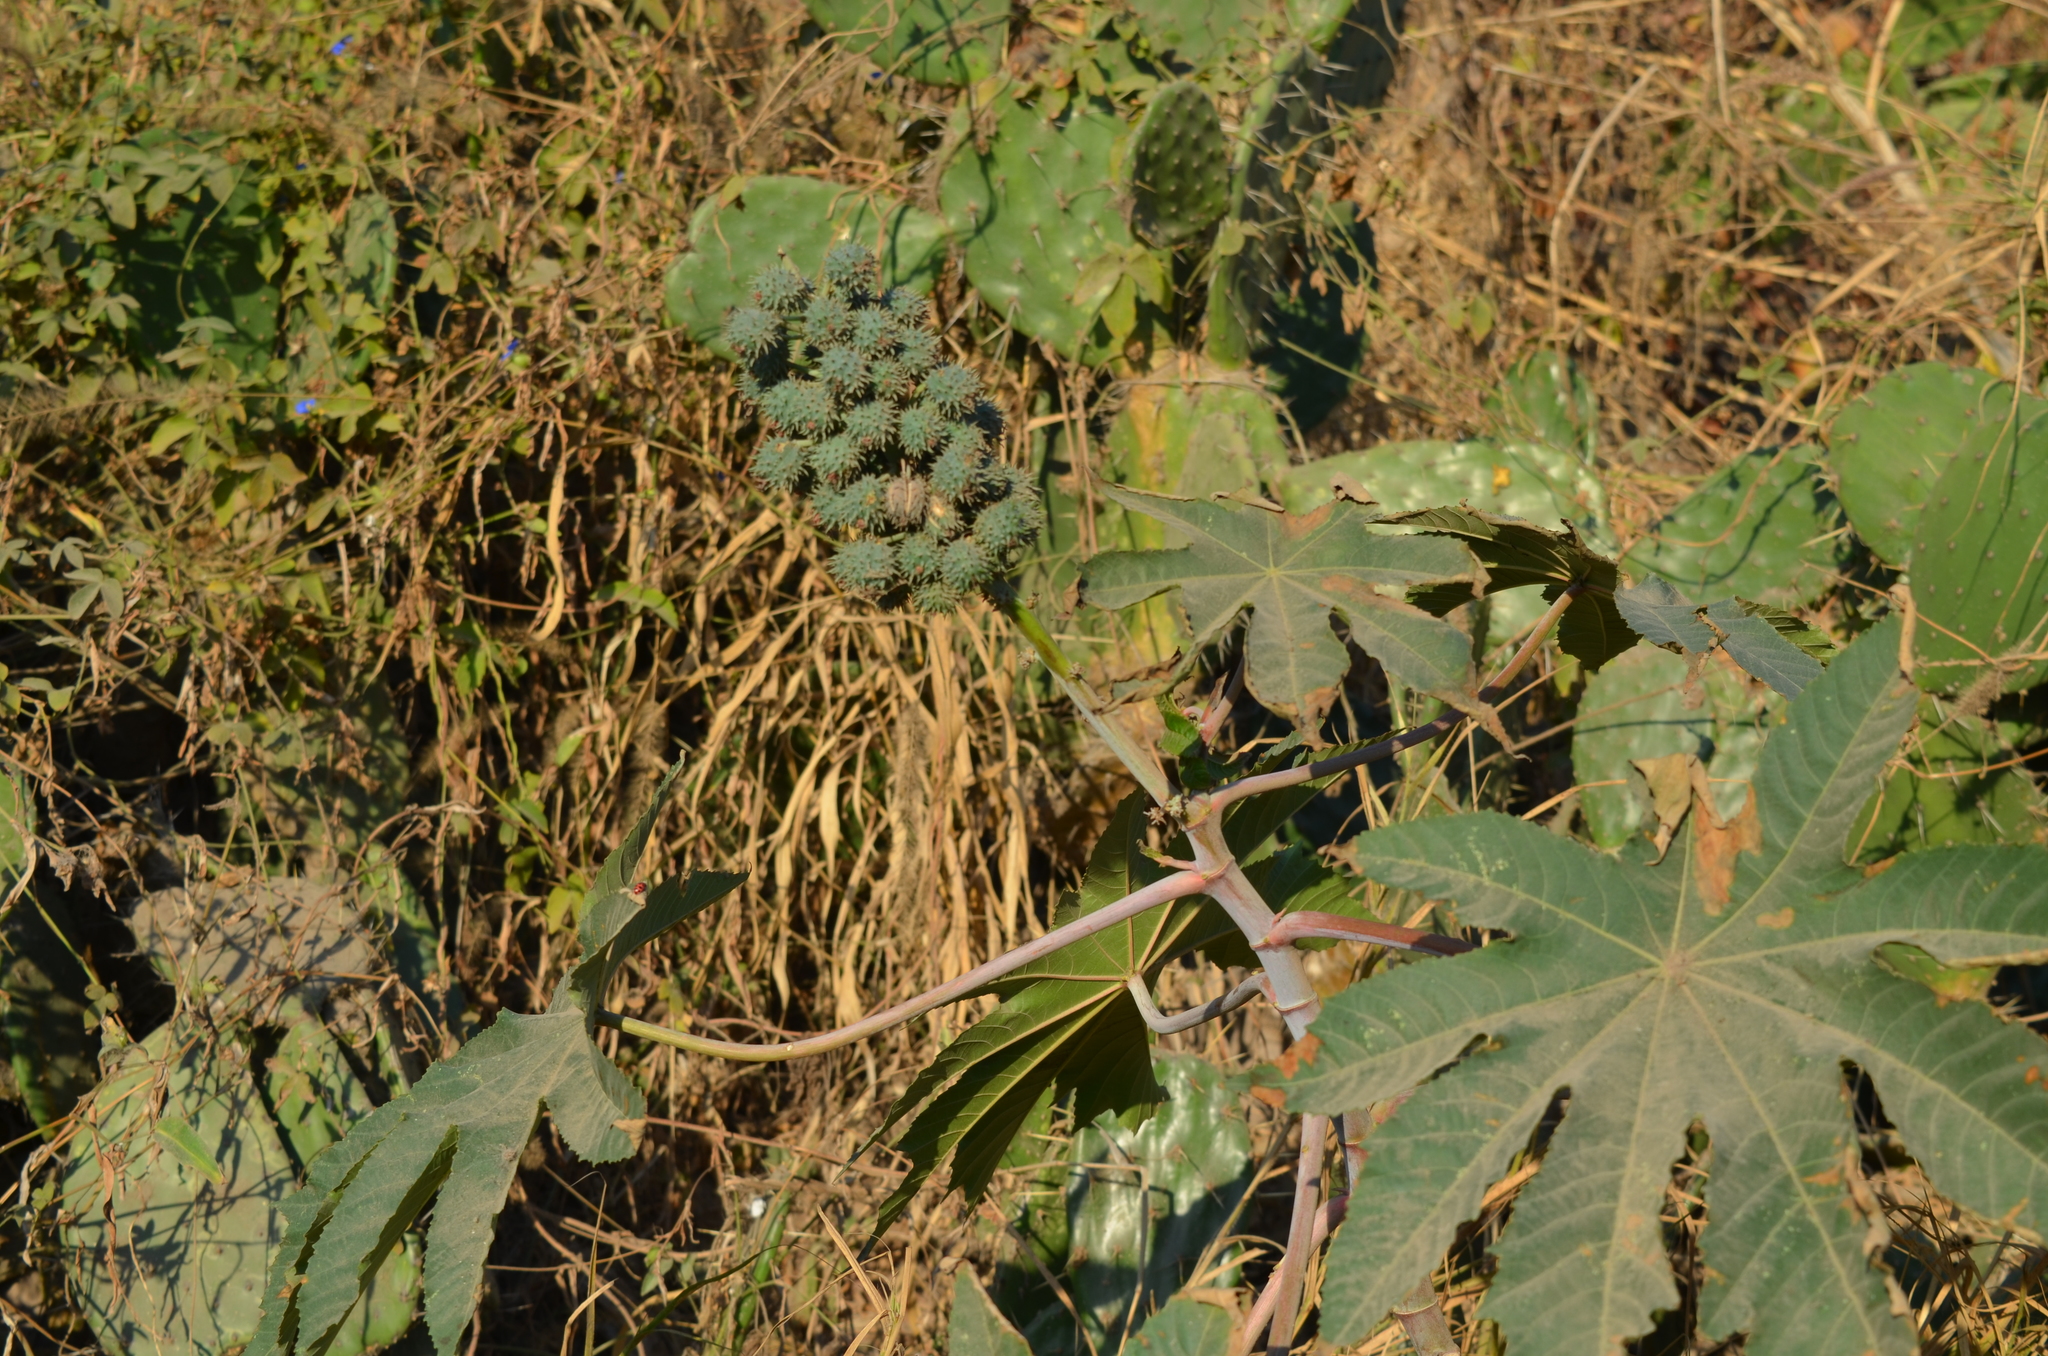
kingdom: Plantae
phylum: Tracheophyta
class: Magnoliopsida
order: Malpighiales
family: Euphorbiaceae
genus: Ricinus
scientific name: Ricinus communis
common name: Castor-oil-plant
